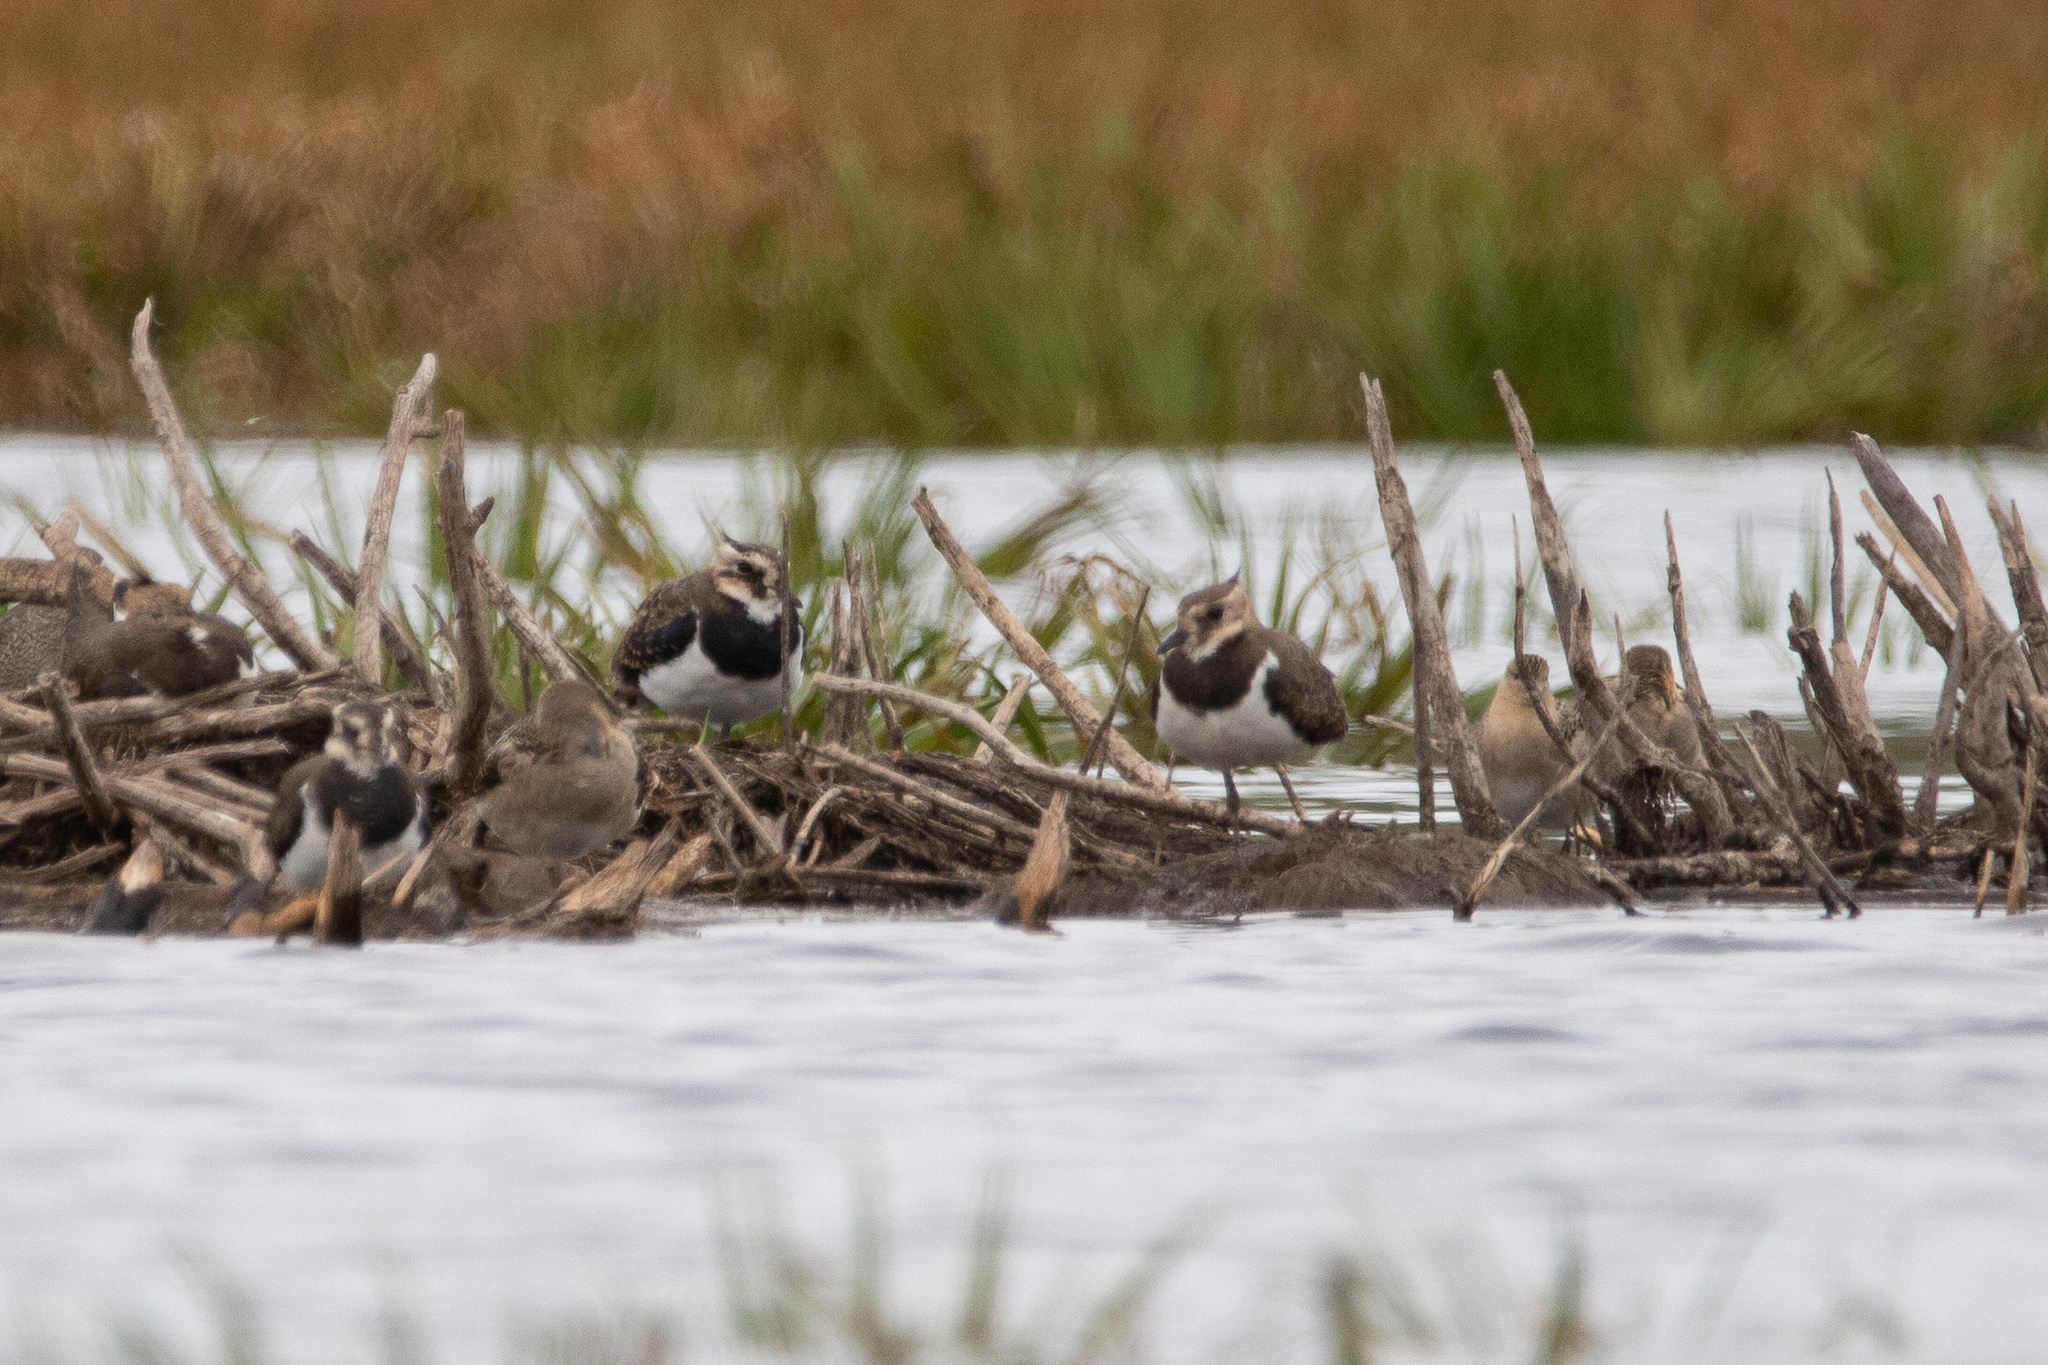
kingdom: Animalia
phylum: Chordata
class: Aves
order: Charadriiformes
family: Charadriidae
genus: Vanellus
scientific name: Vanellus vanellus
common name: Northern lapwing
